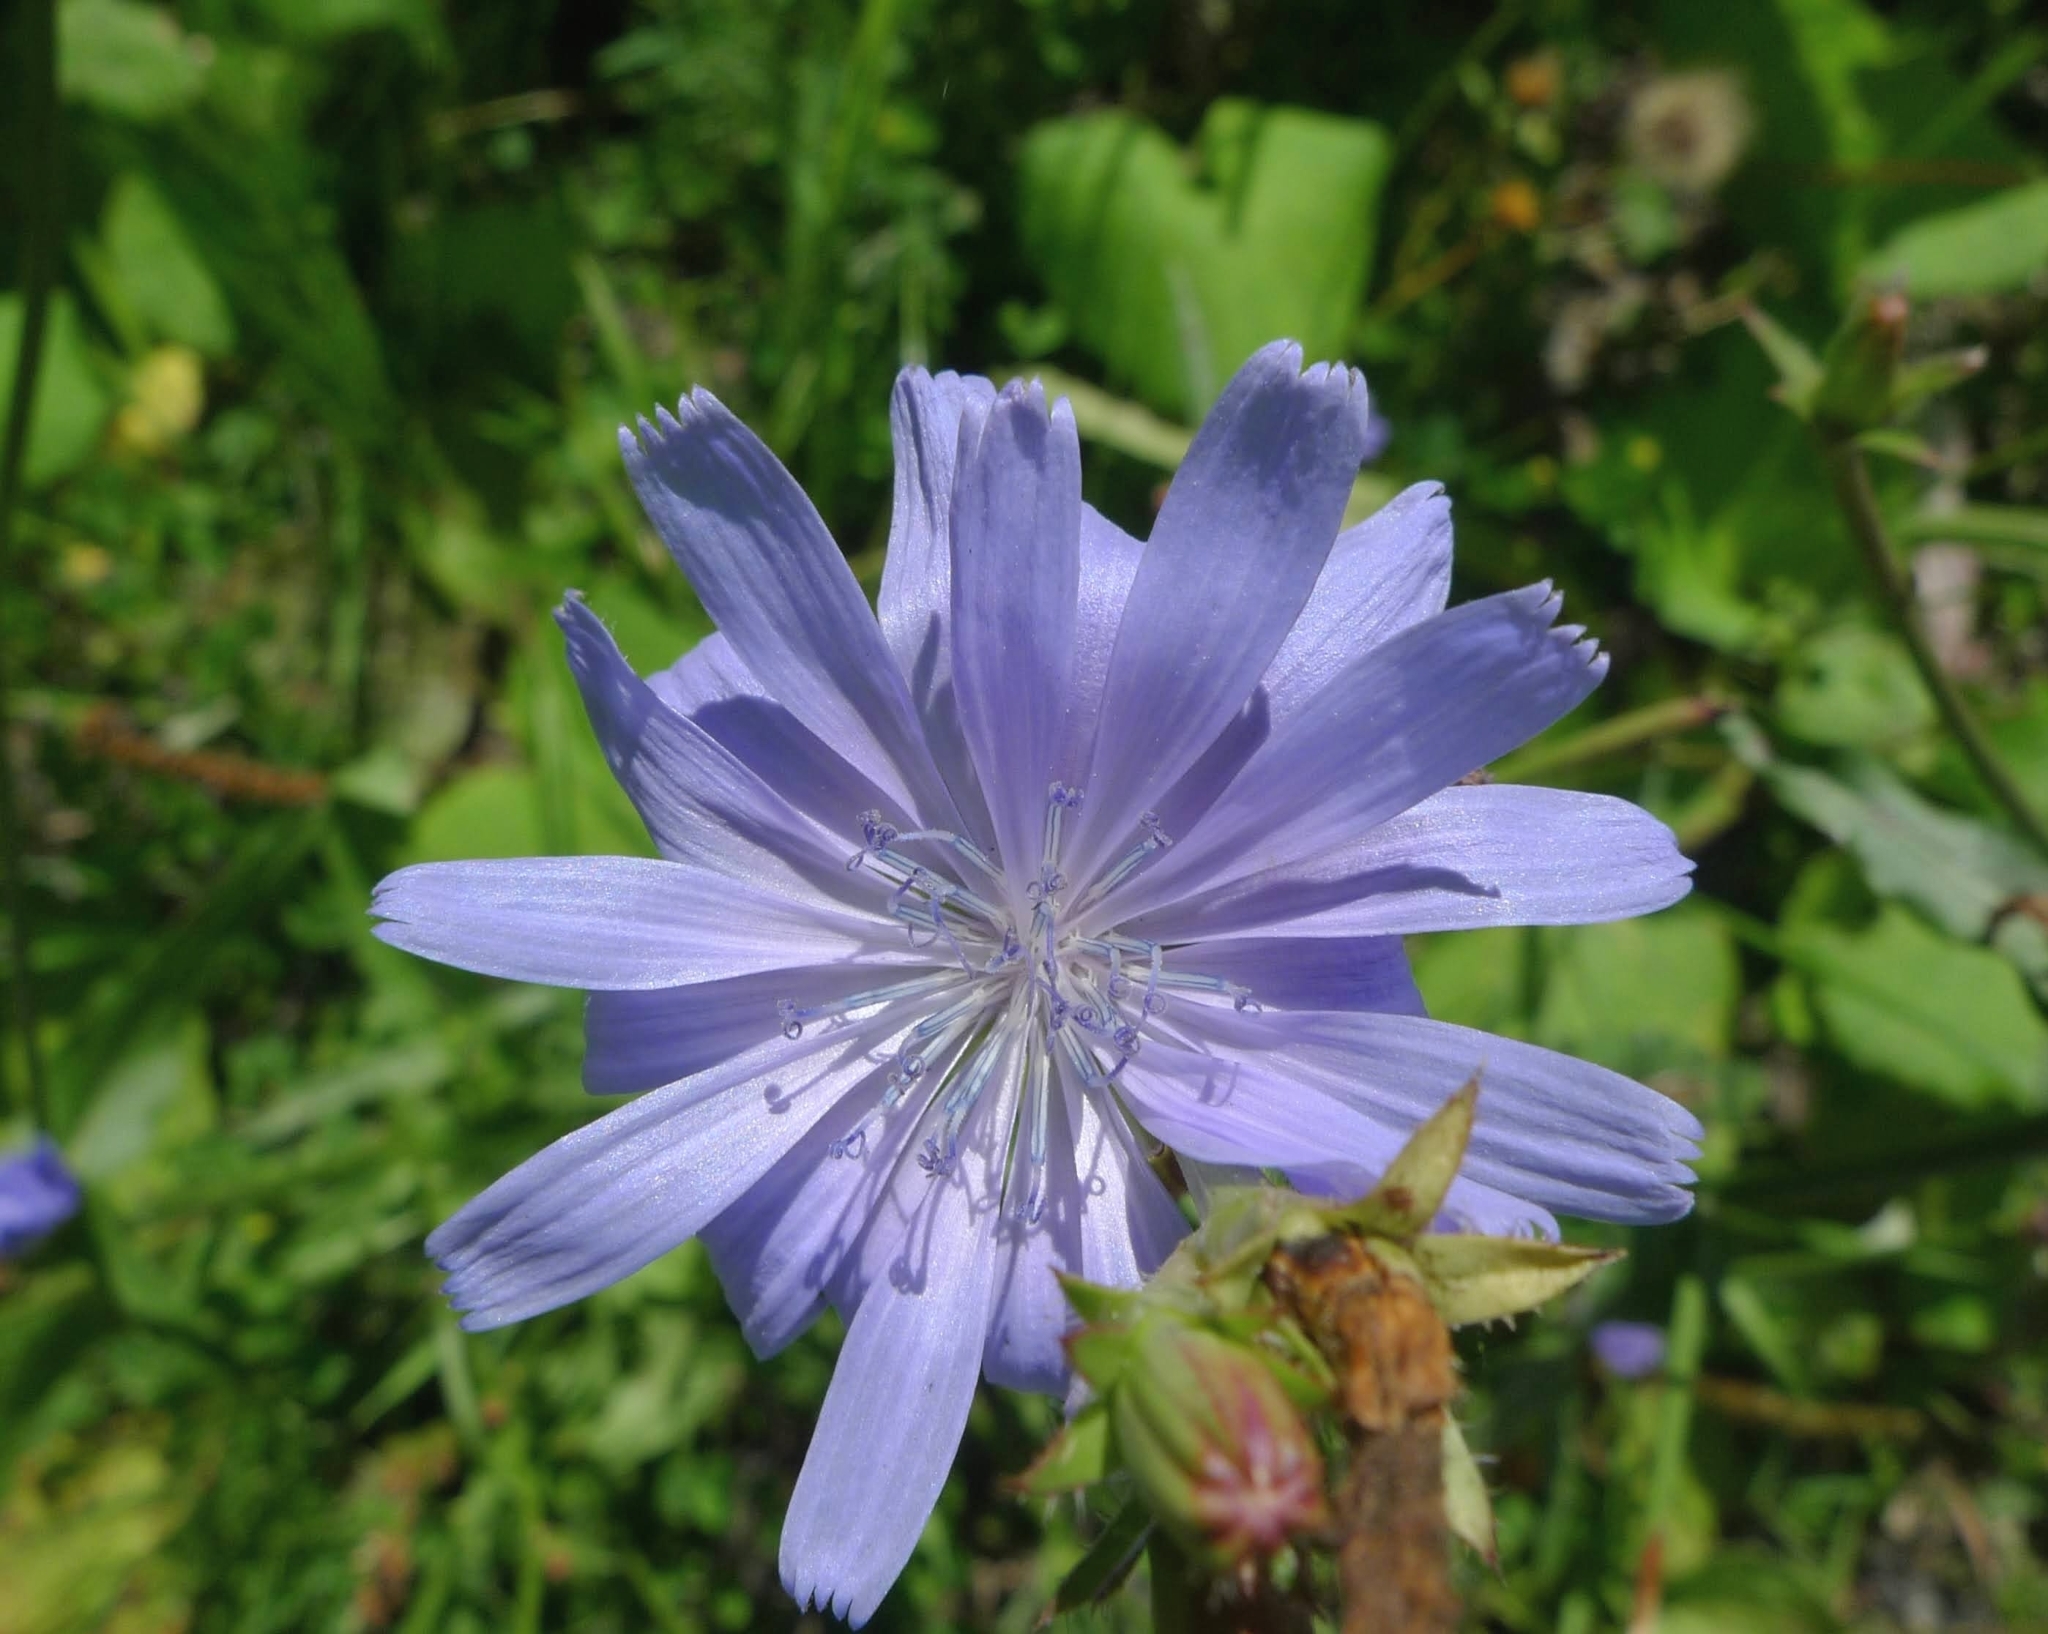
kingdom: Plantae
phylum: Tracheophyta
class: Magnoliopsida
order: Asterales
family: Asteraceae
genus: Cichorium
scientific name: Cichorium intybus
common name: Chicory
